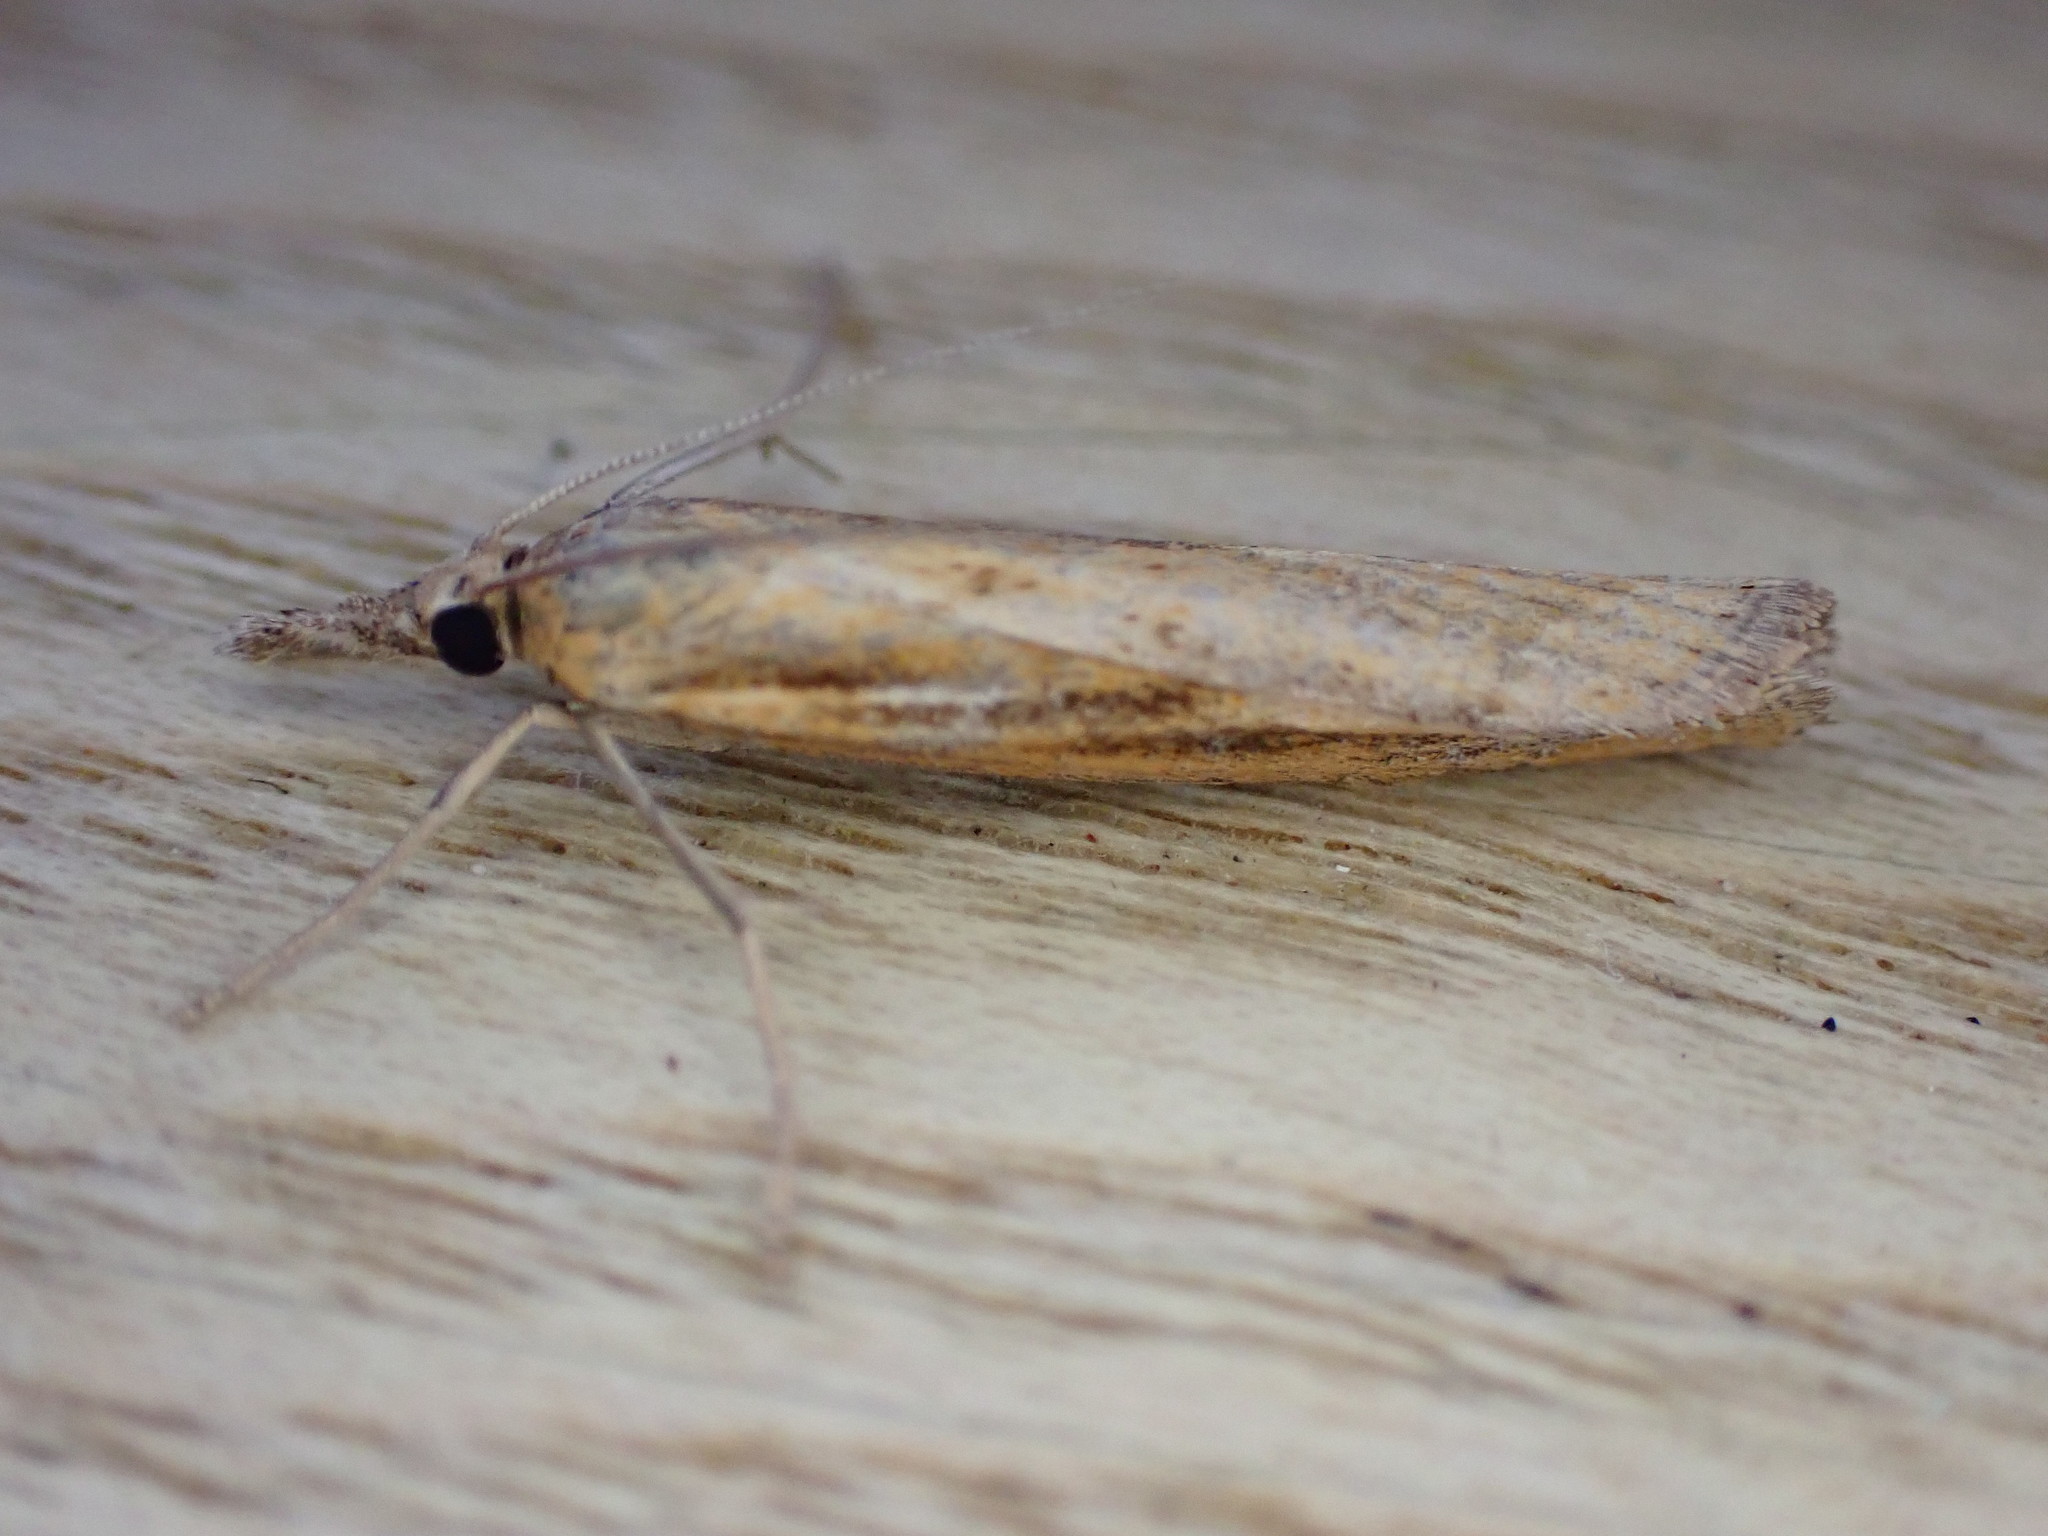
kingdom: Animalia
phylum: Arthropoda
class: Insecta
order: Lepidoptera
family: Crambidae
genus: Agriphila
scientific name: Agriphila tristellus
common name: Common grass-veneer
